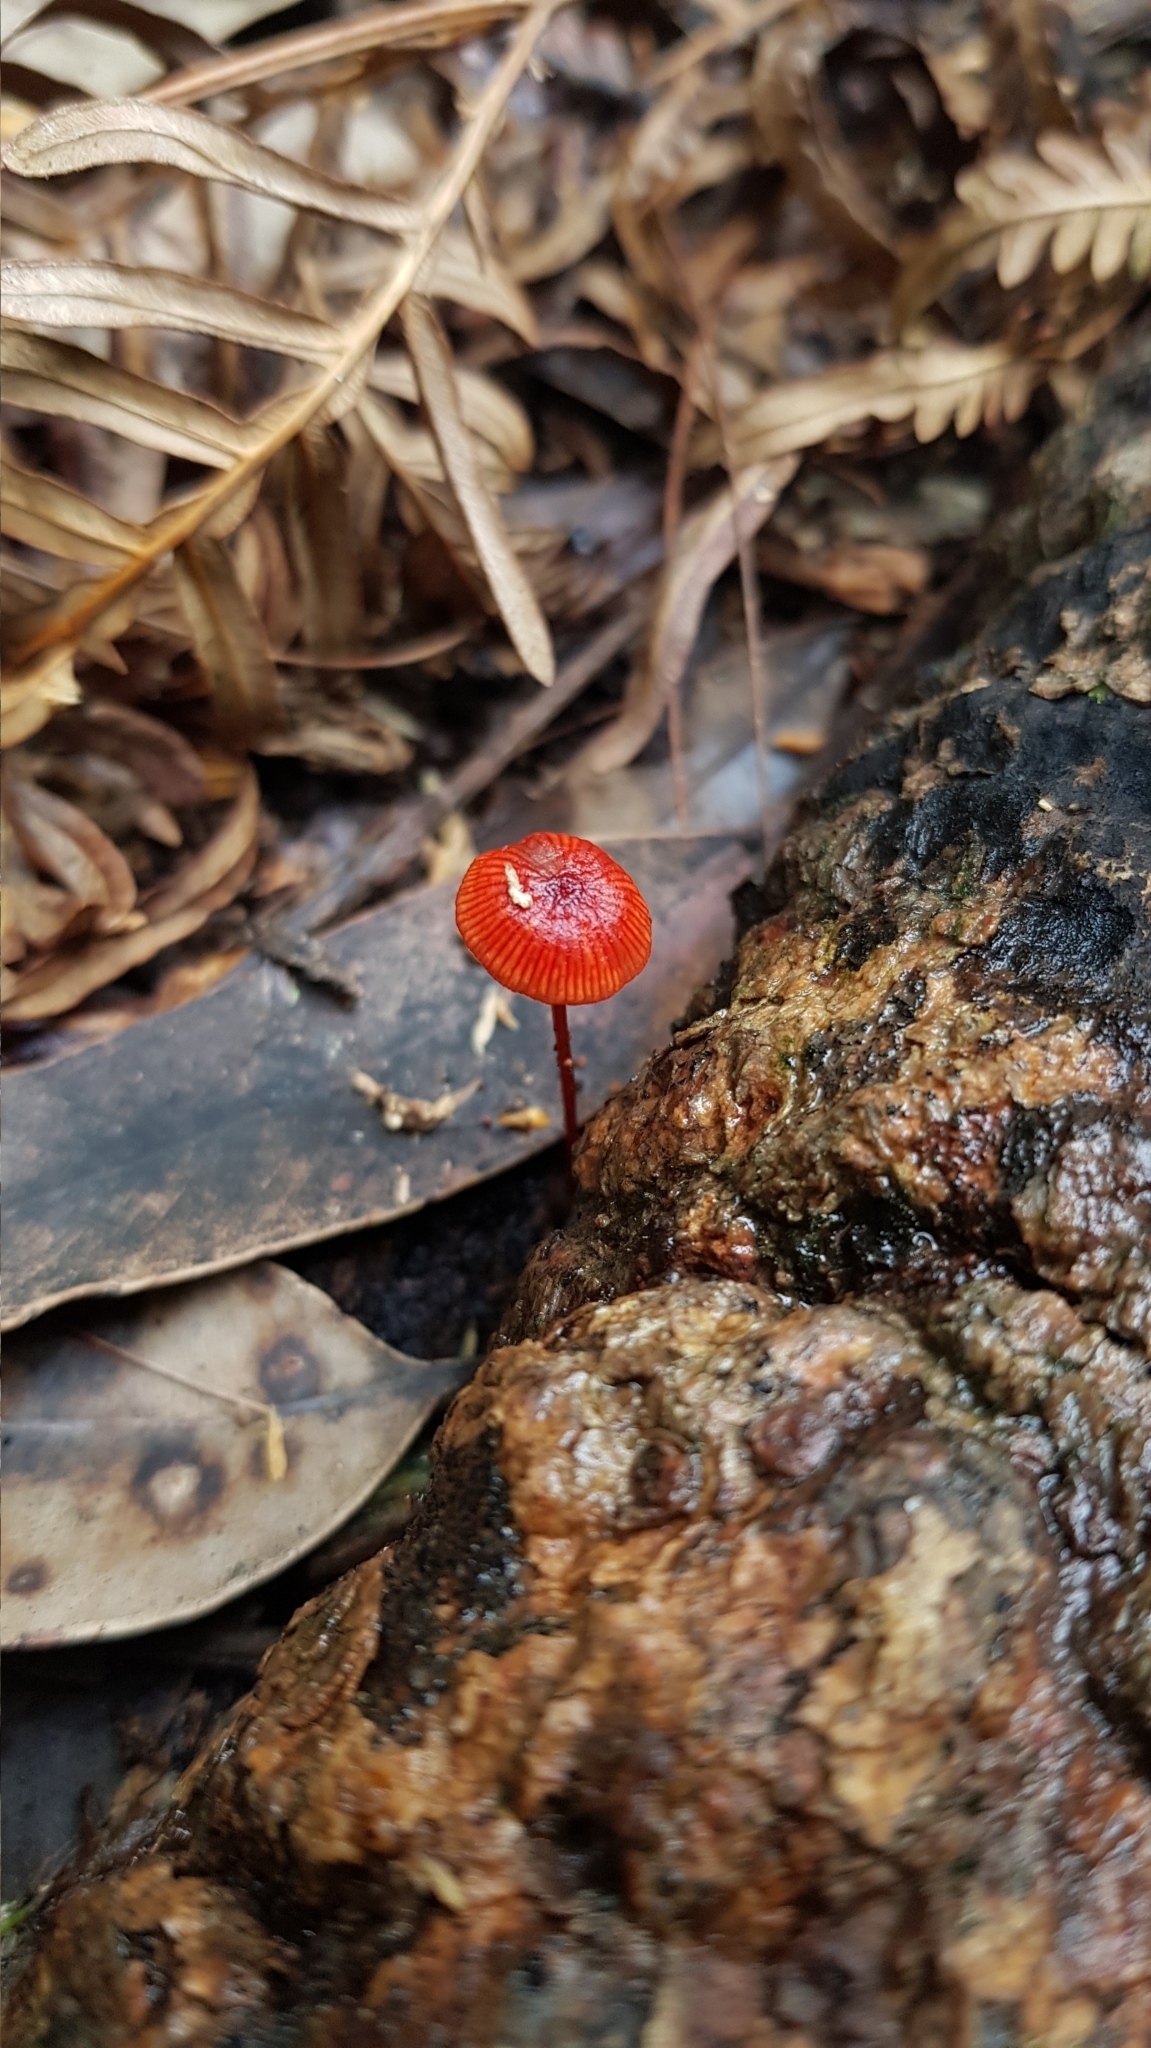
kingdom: Fungi
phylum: Basidiomycota
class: Agaricomycetes
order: Agaricales
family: Mycenaceae
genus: Cruentomycena
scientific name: Cruentomycena viscidocruenta
